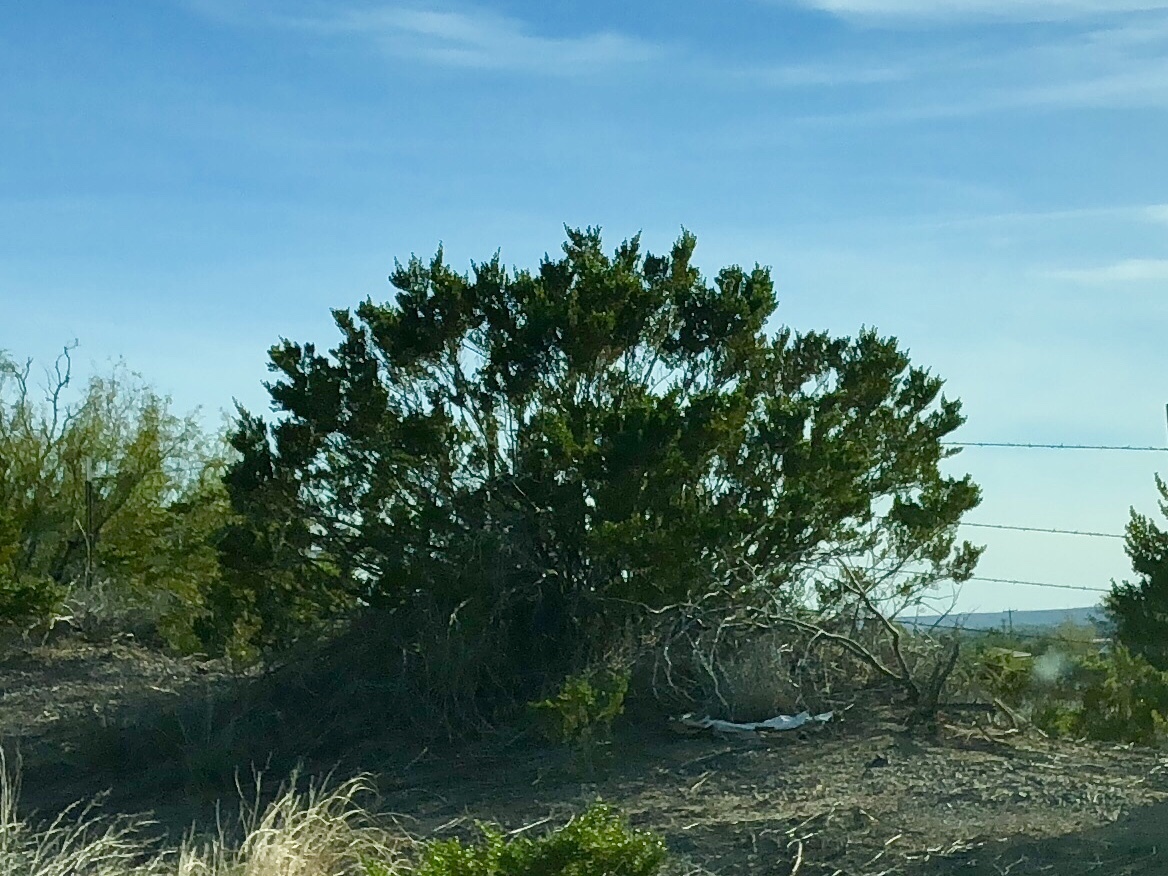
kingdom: Plantae
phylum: Tracheophyta
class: Magnoliopsida
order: Zygophyllales
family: Zygophyllaceae
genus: Larrea
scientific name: Larrea tridentata
